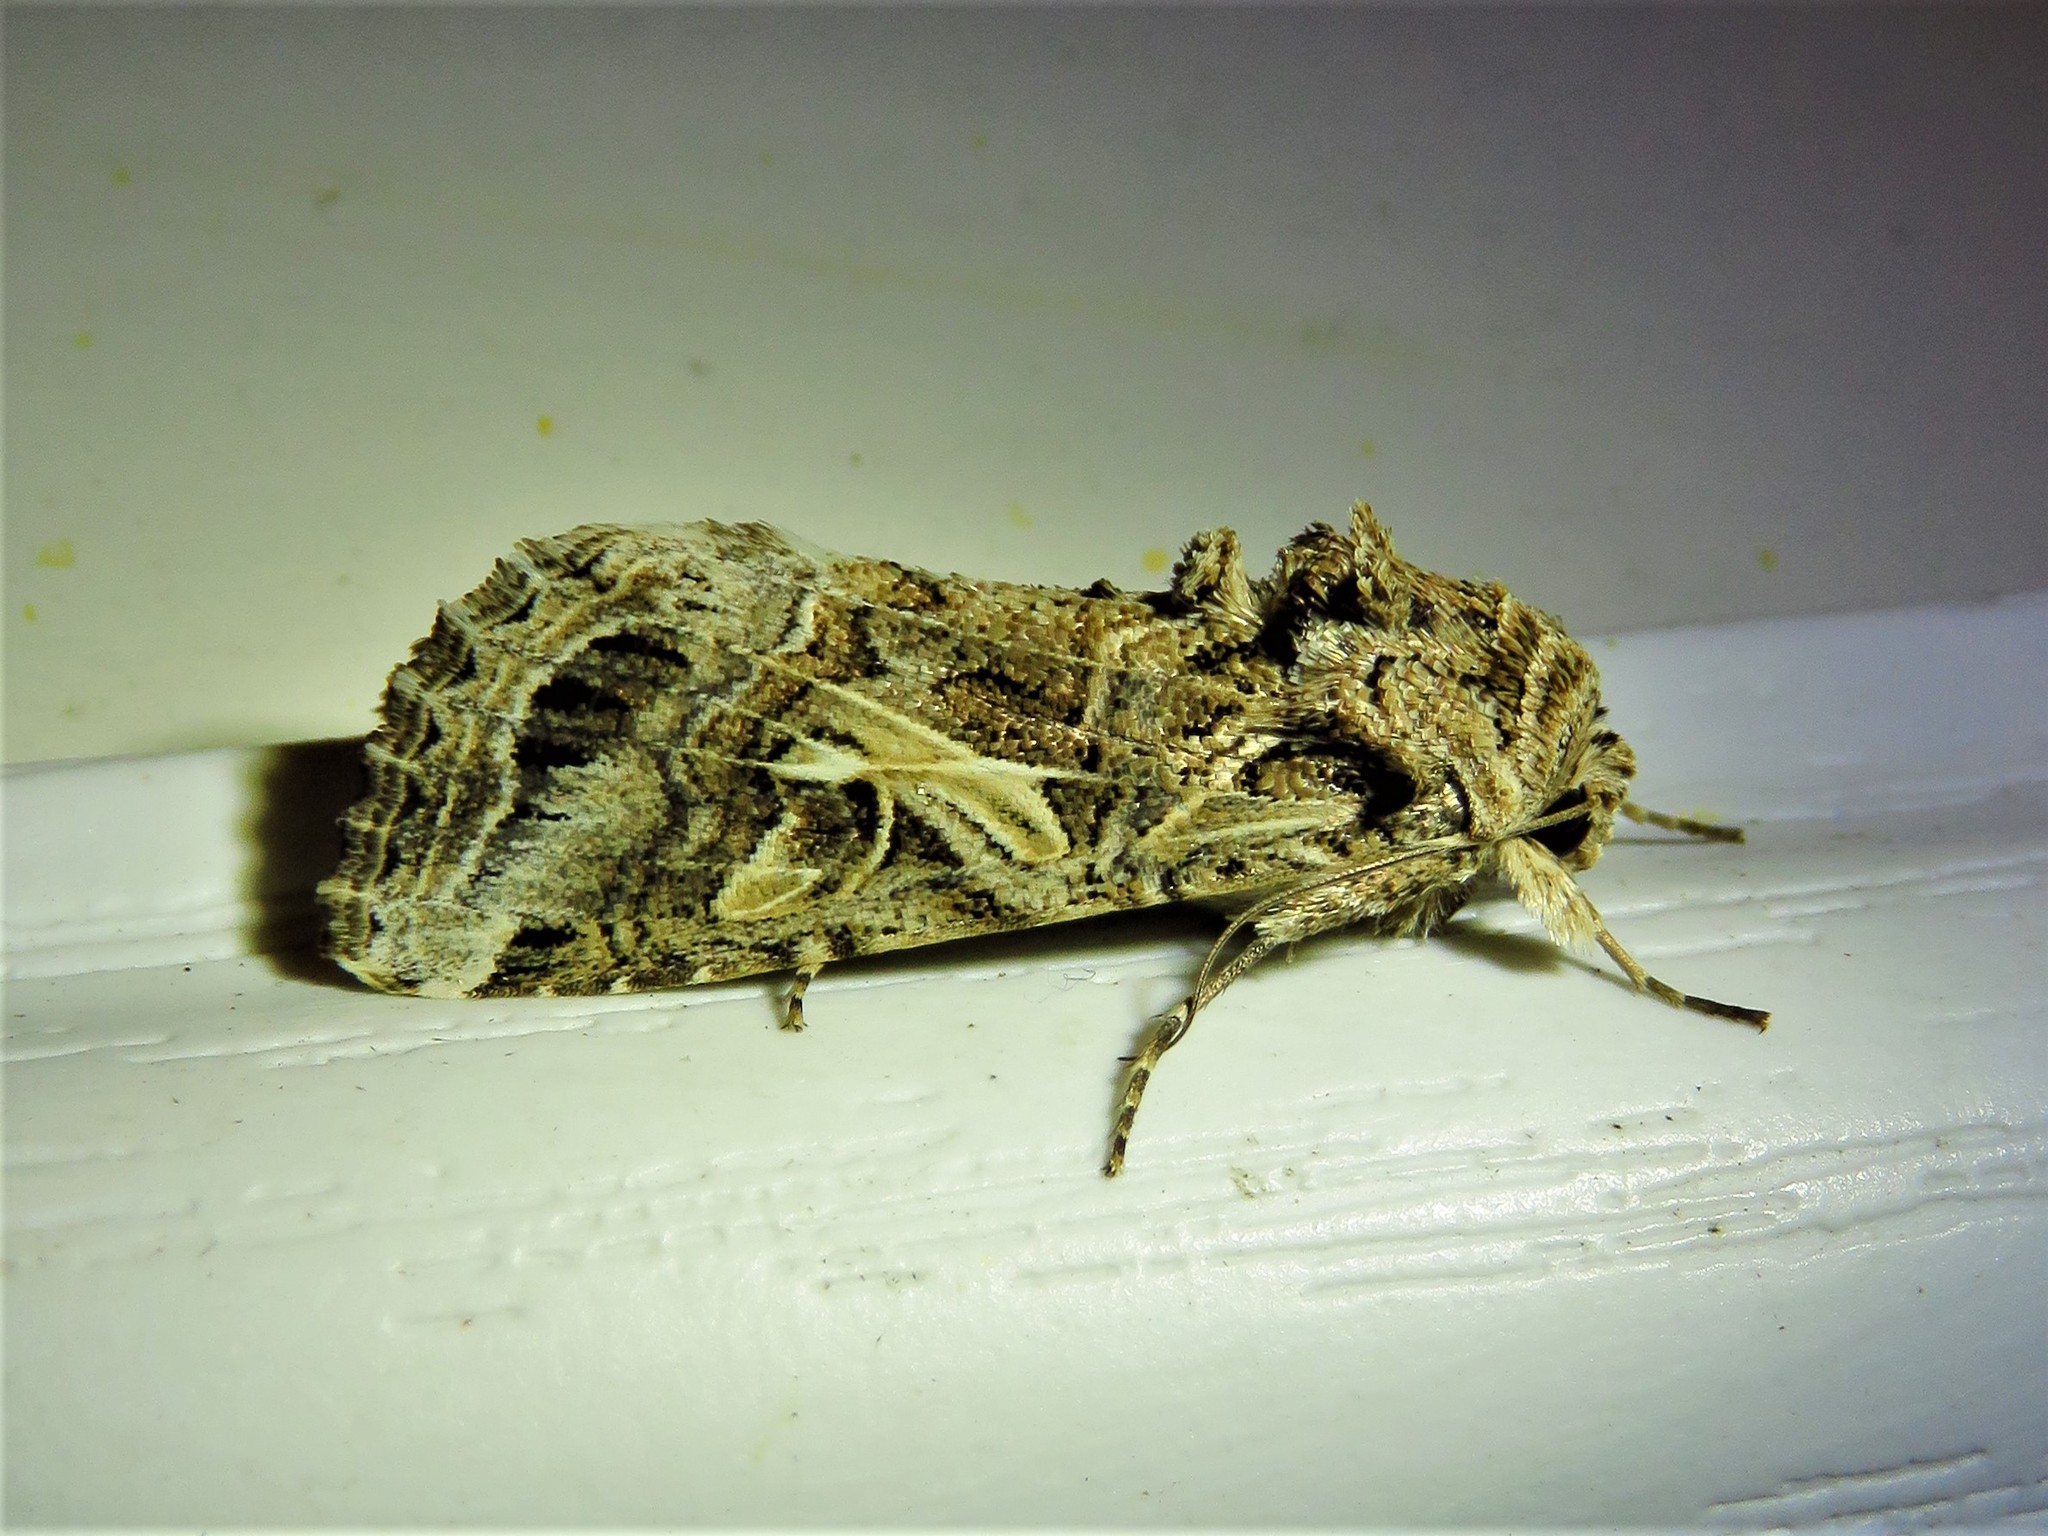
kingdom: Animalia
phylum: Arthropoda
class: Insecta
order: Lepidoptera
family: Noctuidae
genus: Spodoptera
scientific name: Spodoptera ornithogalli
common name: Yellow-striped armyworm
